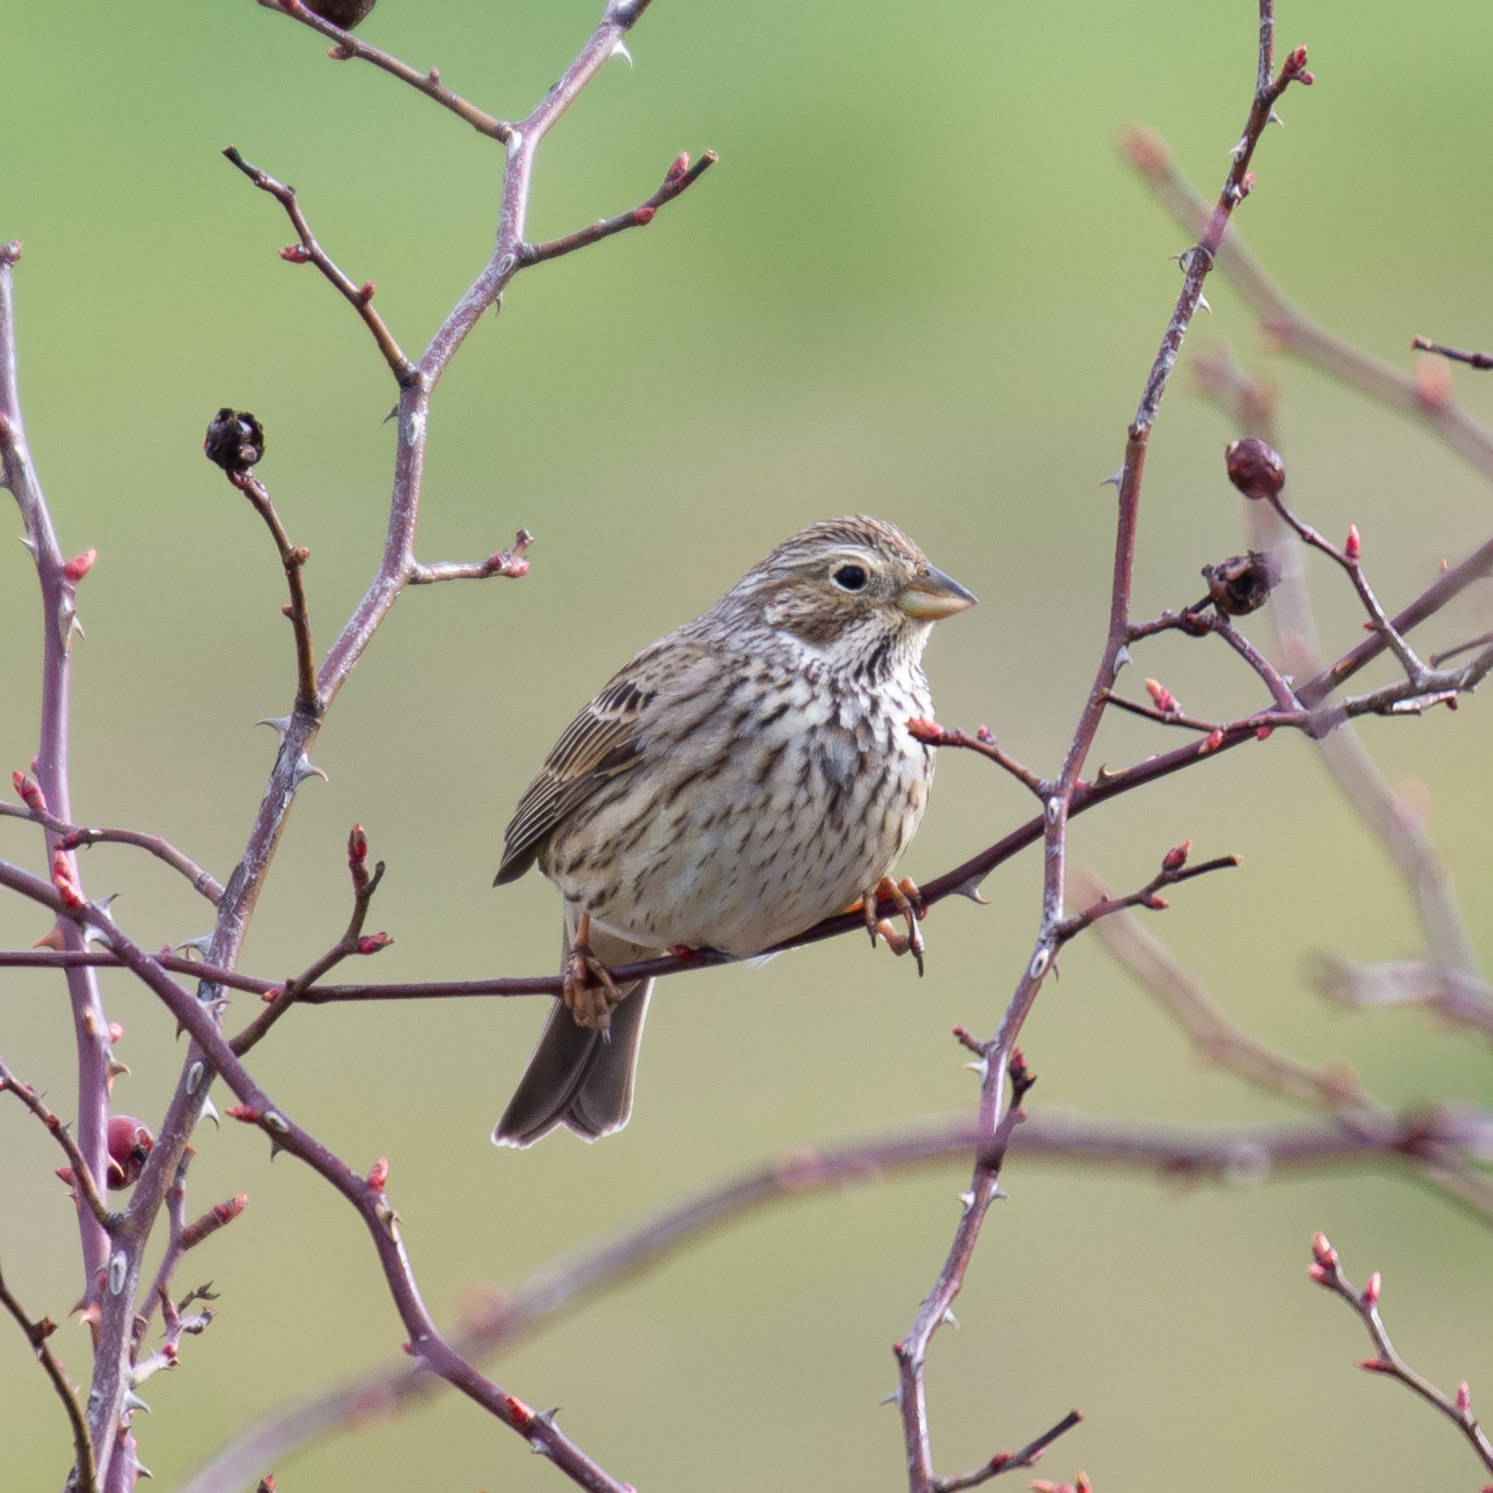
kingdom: Animalia
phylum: Chordata
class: Aves
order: Passeriformes
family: Emberizidae
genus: Emberiza
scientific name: Emberiza calandra
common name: Corn bunting
